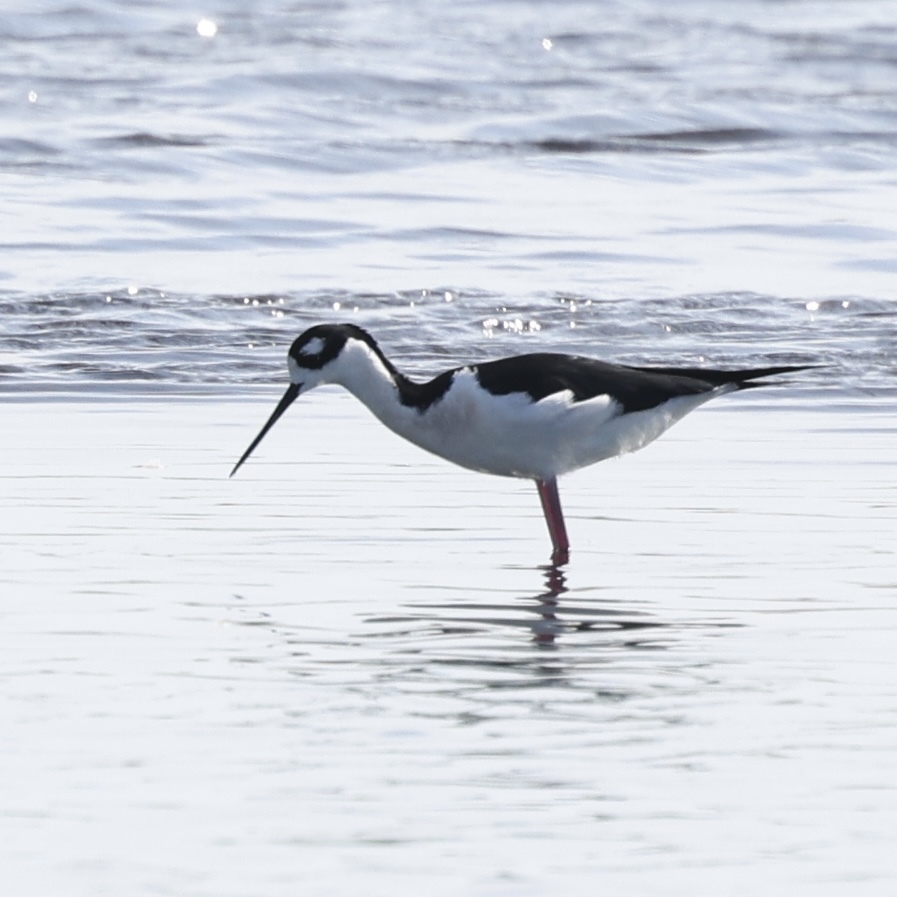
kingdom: Animalia
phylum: Chordata
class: Aves
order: Charadriiformes
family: Recurvirostridae
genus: Himantopus
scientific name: Himantopus mexicanus
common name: Black-necked stilt
